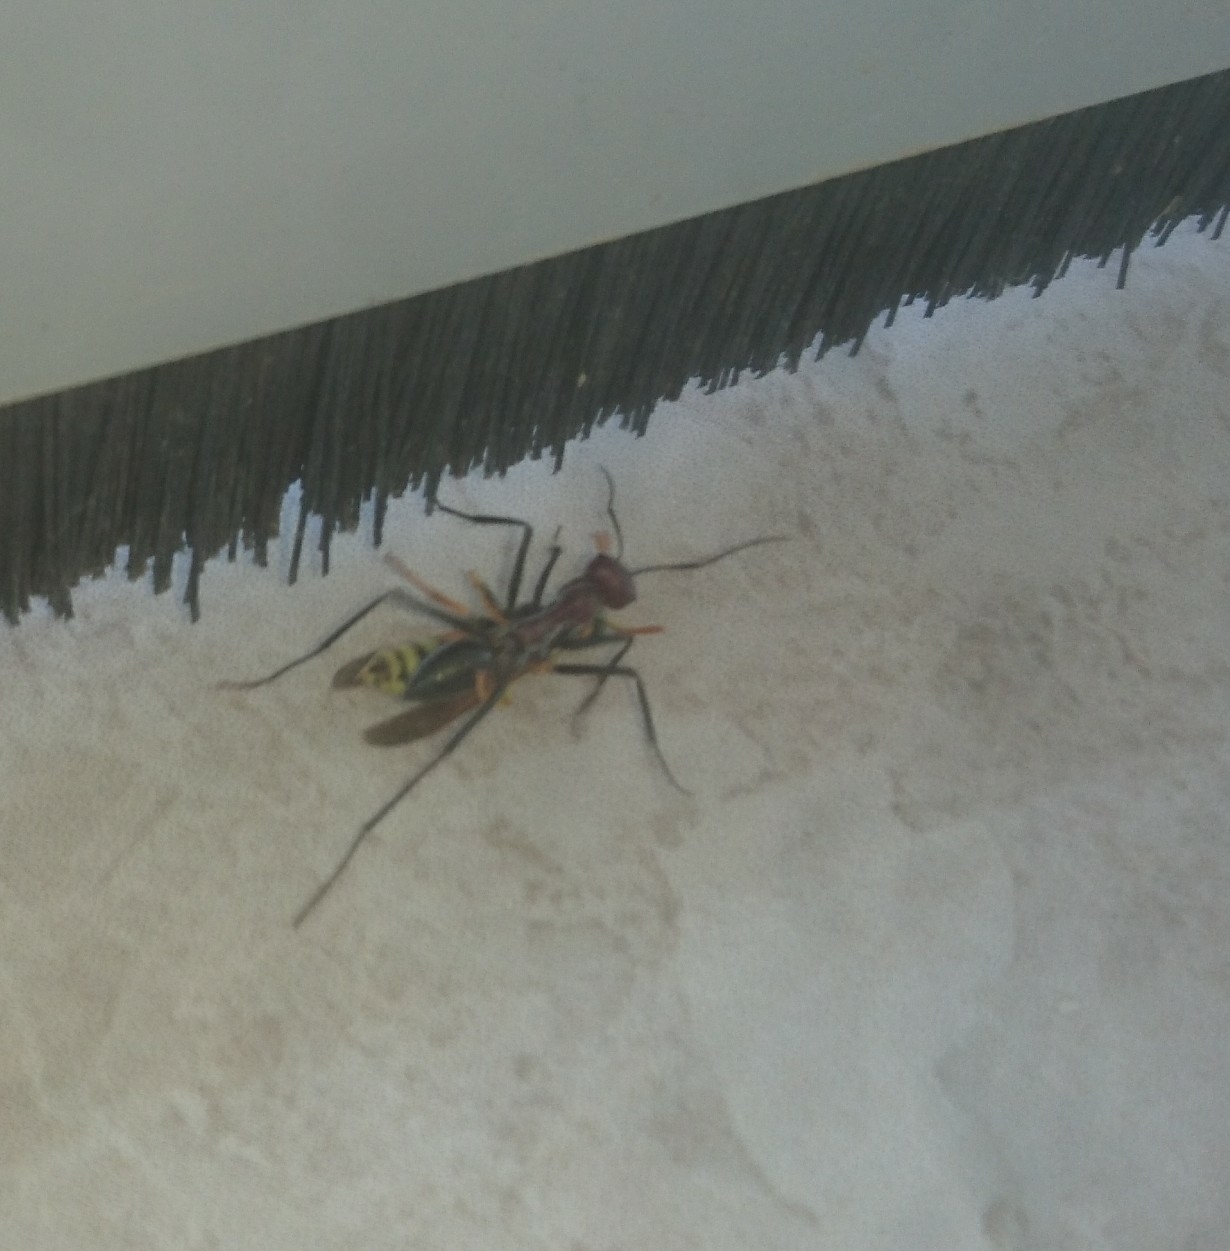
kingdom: Animalia
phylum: Arthropoda
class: Insecta
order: Hymenoptera
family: Formicidae
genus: Cataglyphis
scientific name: Cataglyphis nodus
